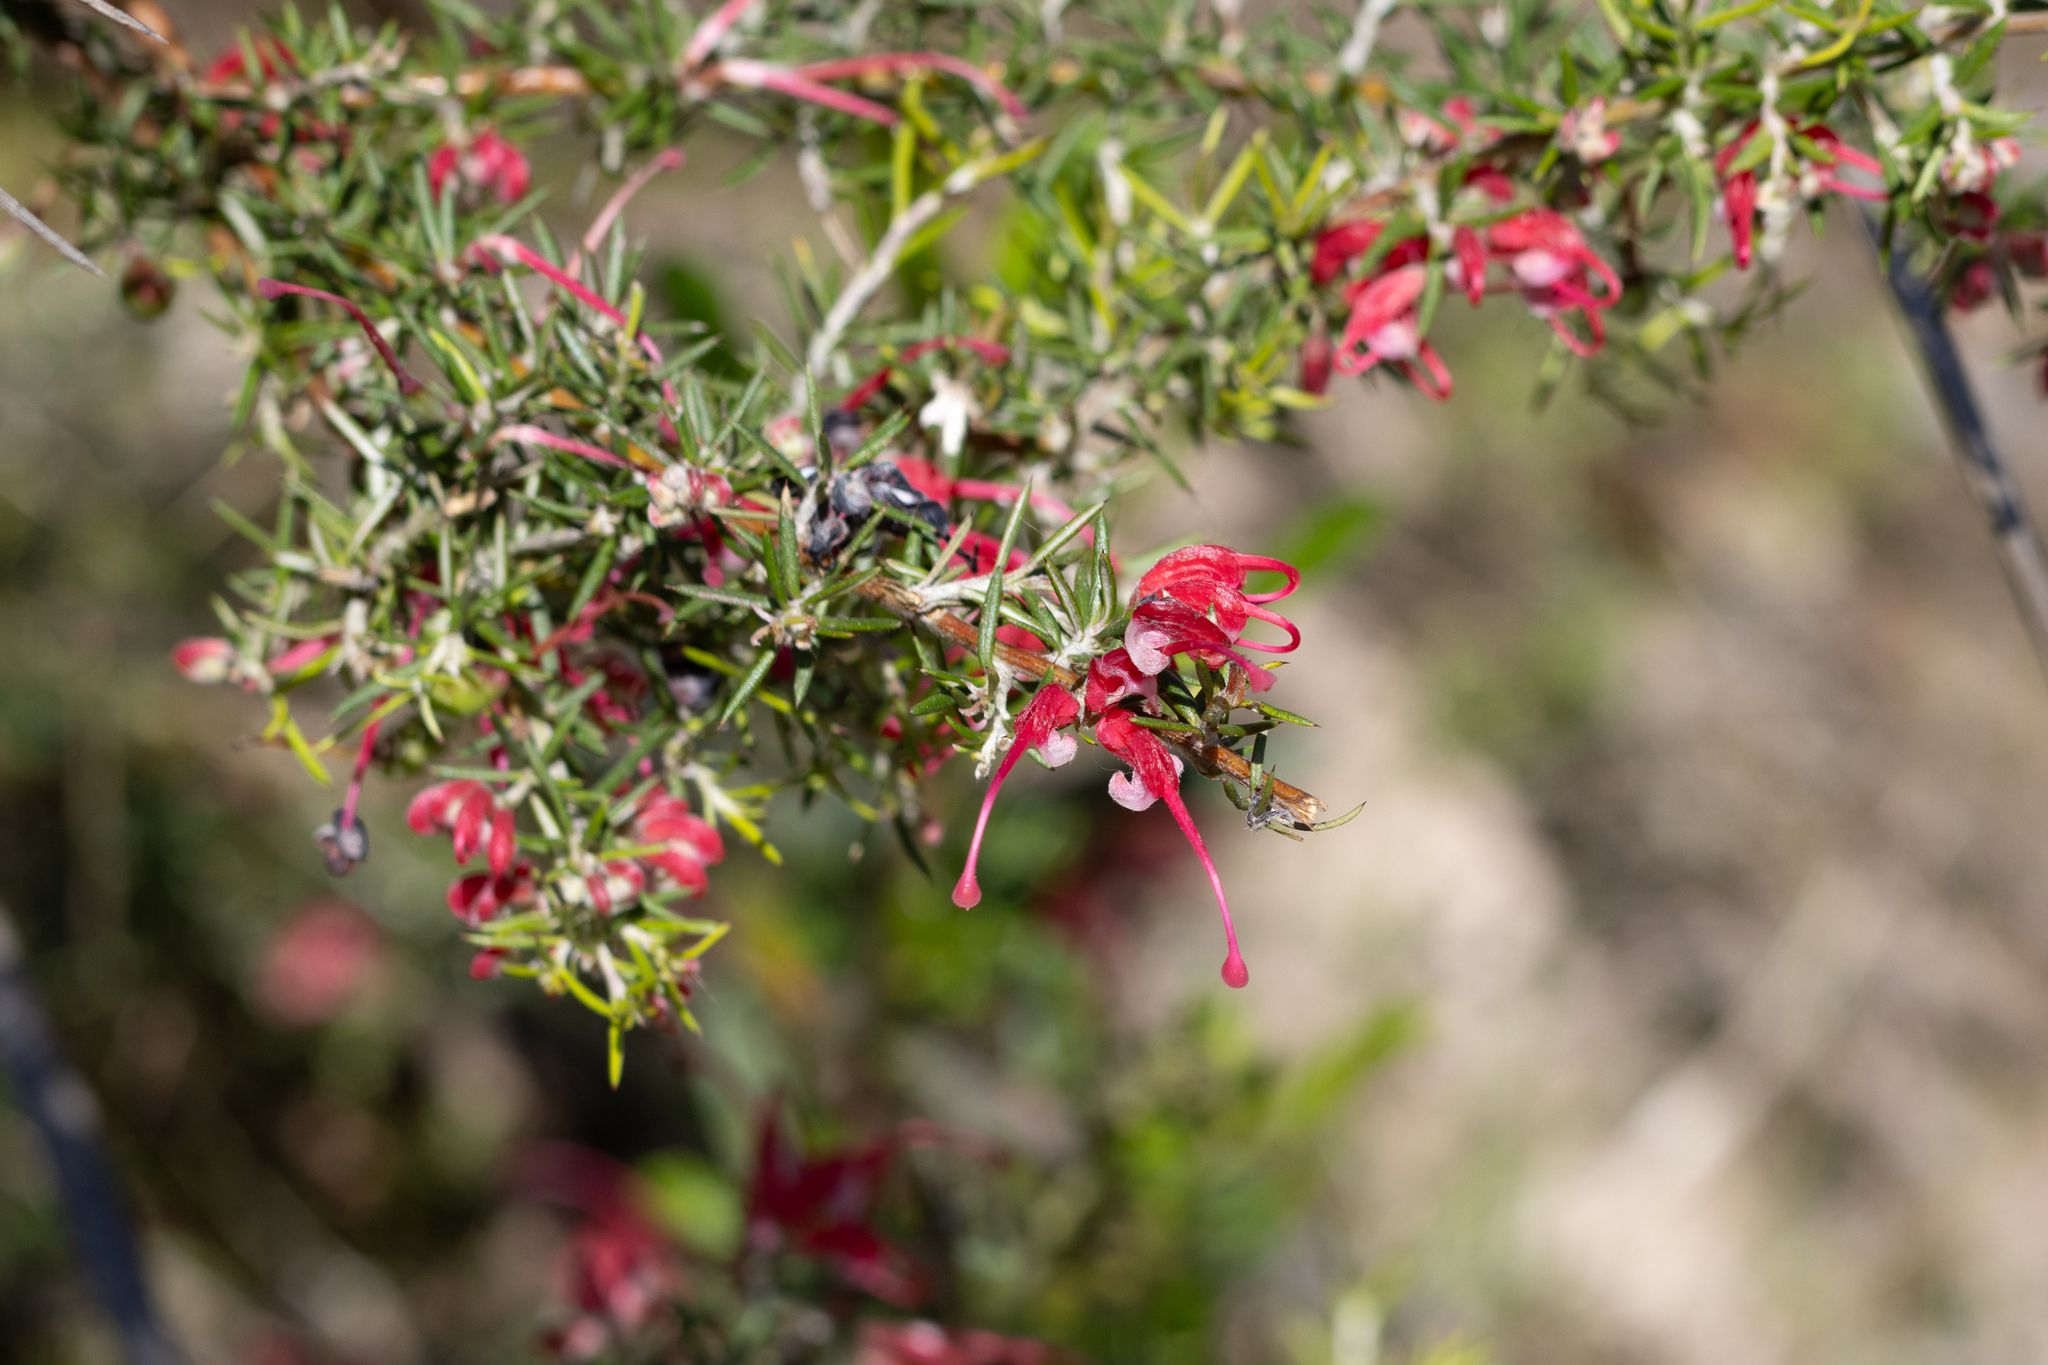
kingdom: Plantae
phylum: Tracheophyta
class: Magnoliopsida
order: Proteales
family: Proteaceae
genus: Grevillea
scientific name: Grevillea lavandulacea
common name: Lavender grevillea
